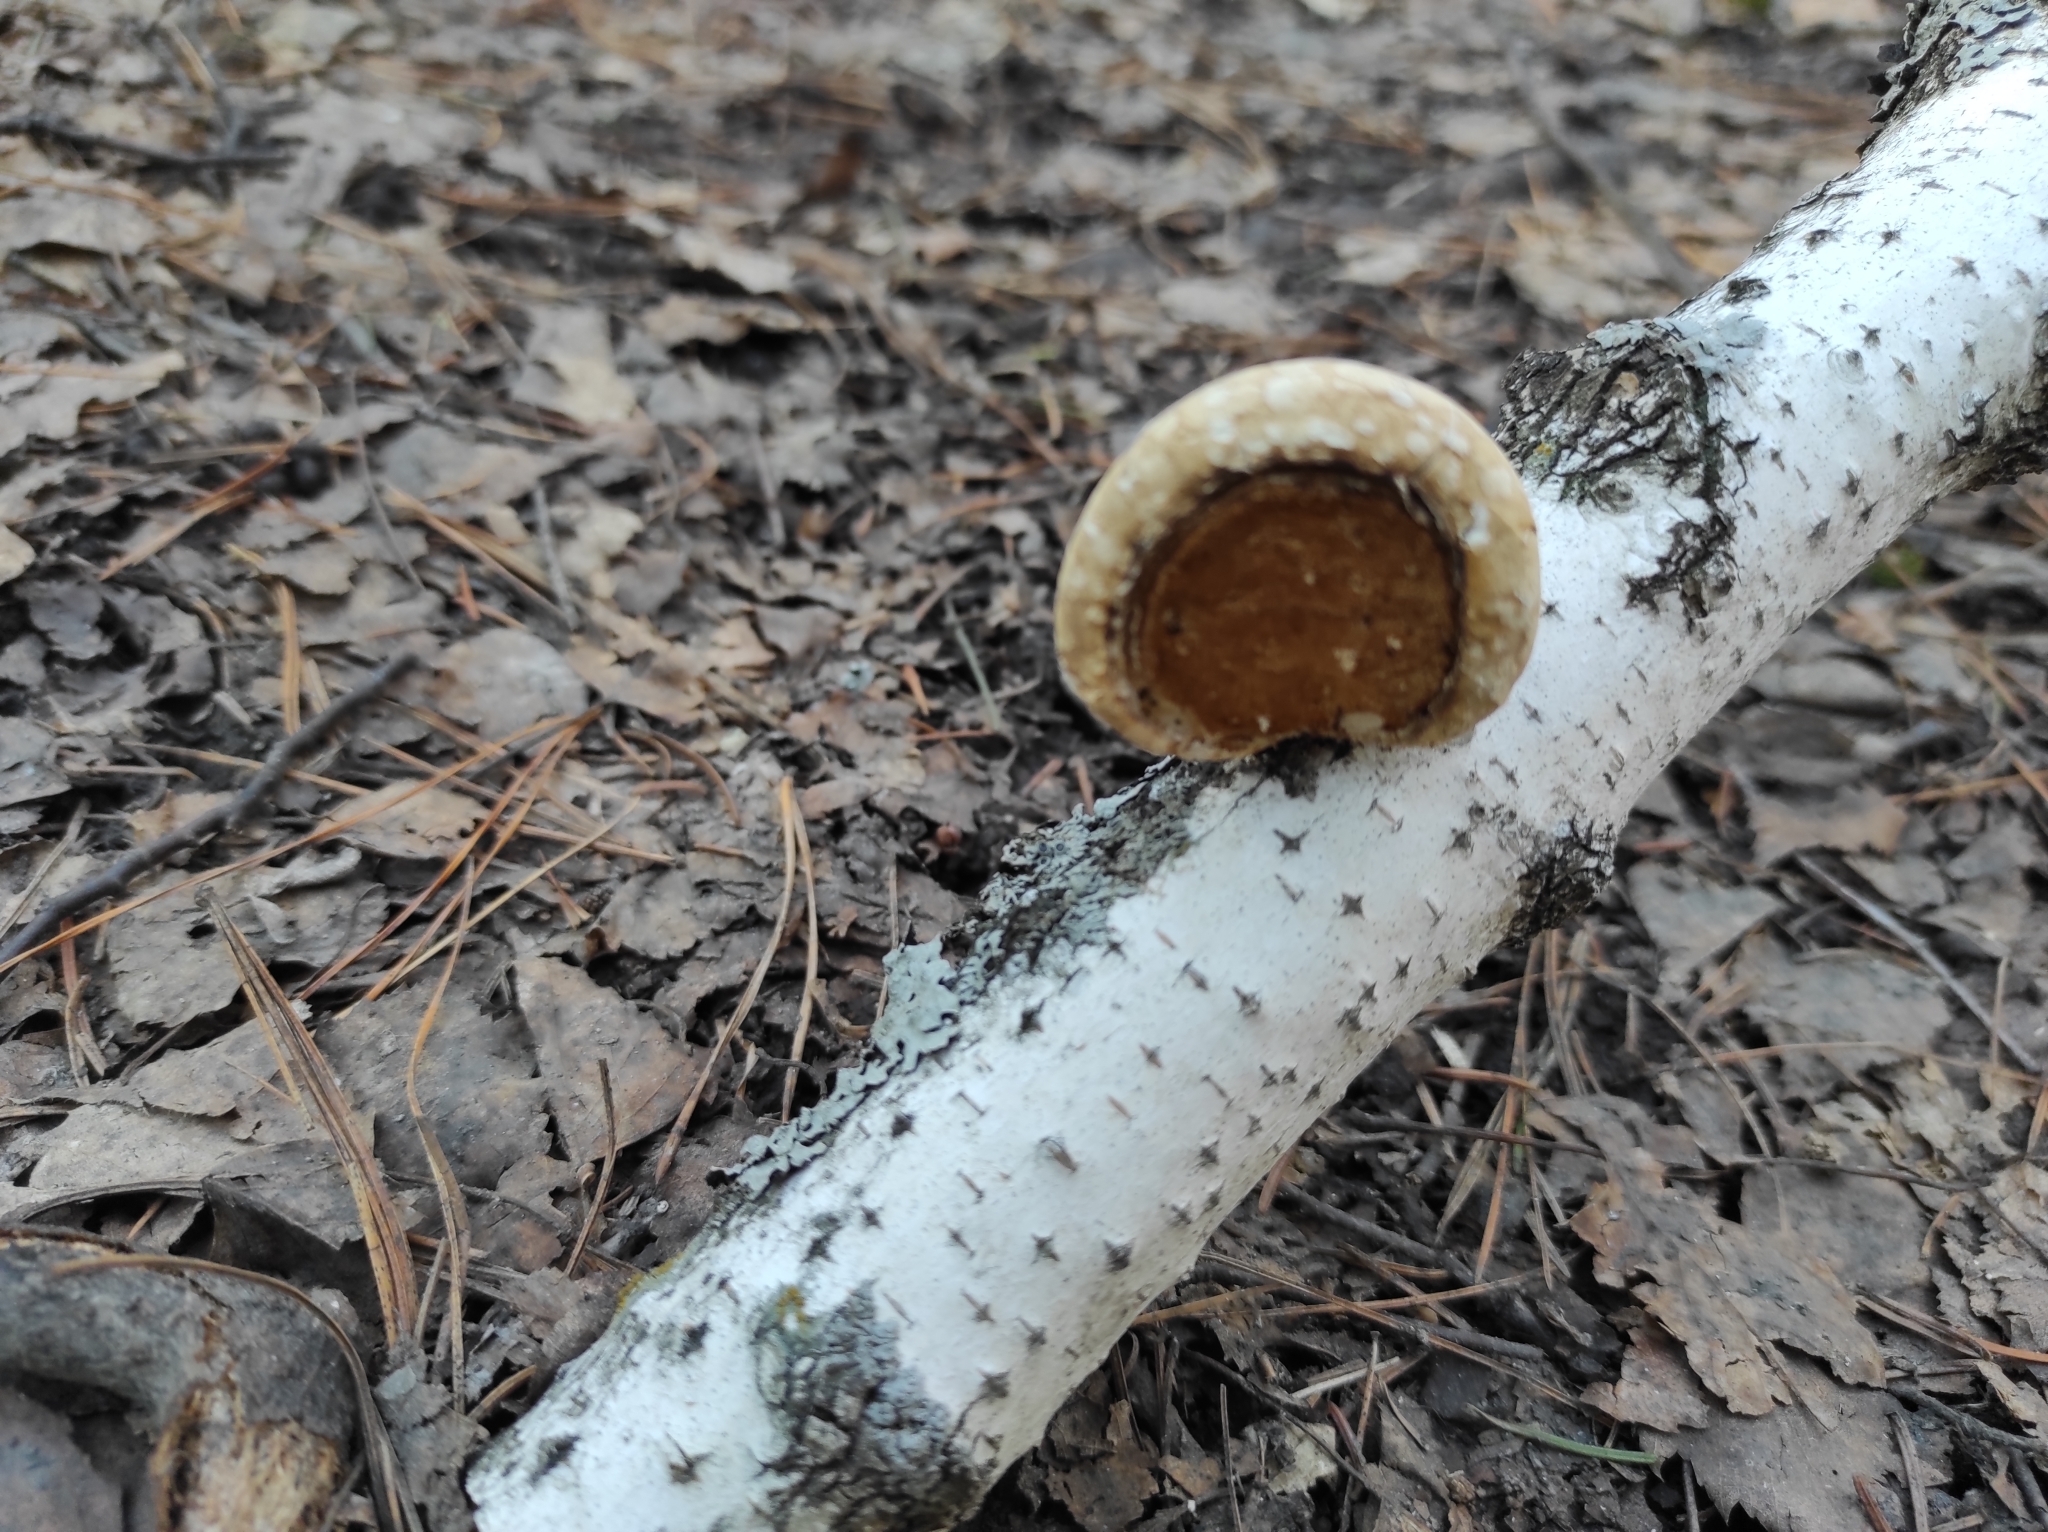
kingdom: Fungi
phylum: Basidiomycota
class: Agaricomycetes
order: Polyporales
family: Fomitopsidaceae
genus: Fomitopsis
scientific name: Fomitopsis betulina
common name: Birch polypore
